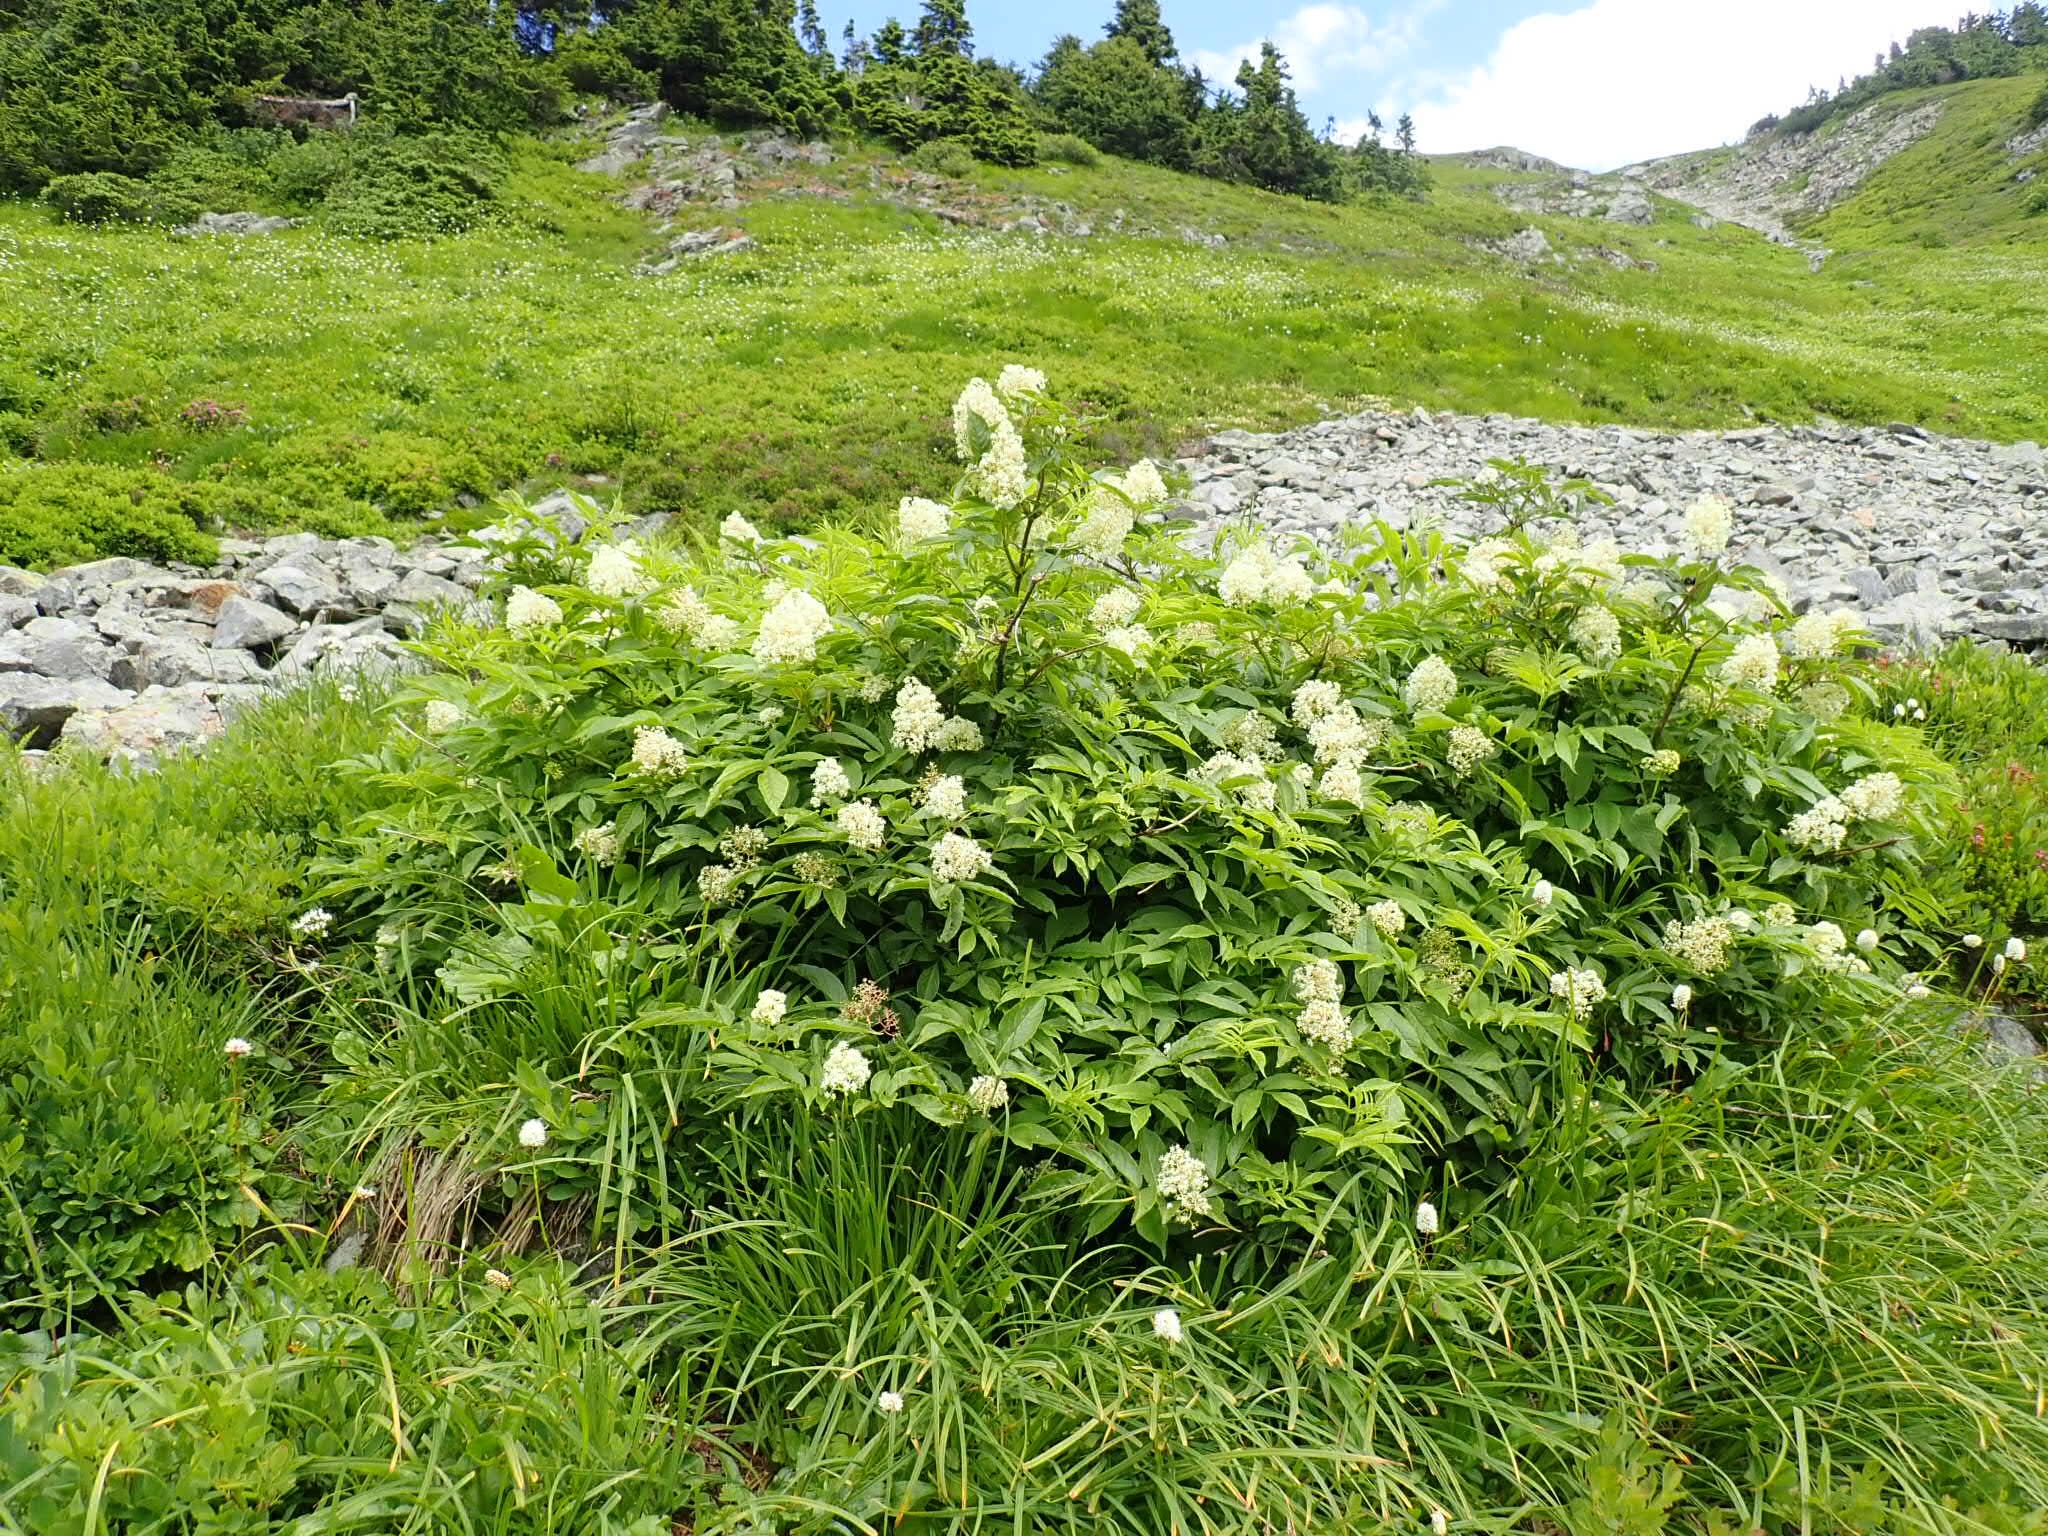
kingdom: Plantae
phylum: Tracheophyta
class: Magnoliopsida
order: Dipsacales
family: Viburnaceae
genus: Sambucus
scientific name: Sambucus racemosa
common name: Red-berried elder
